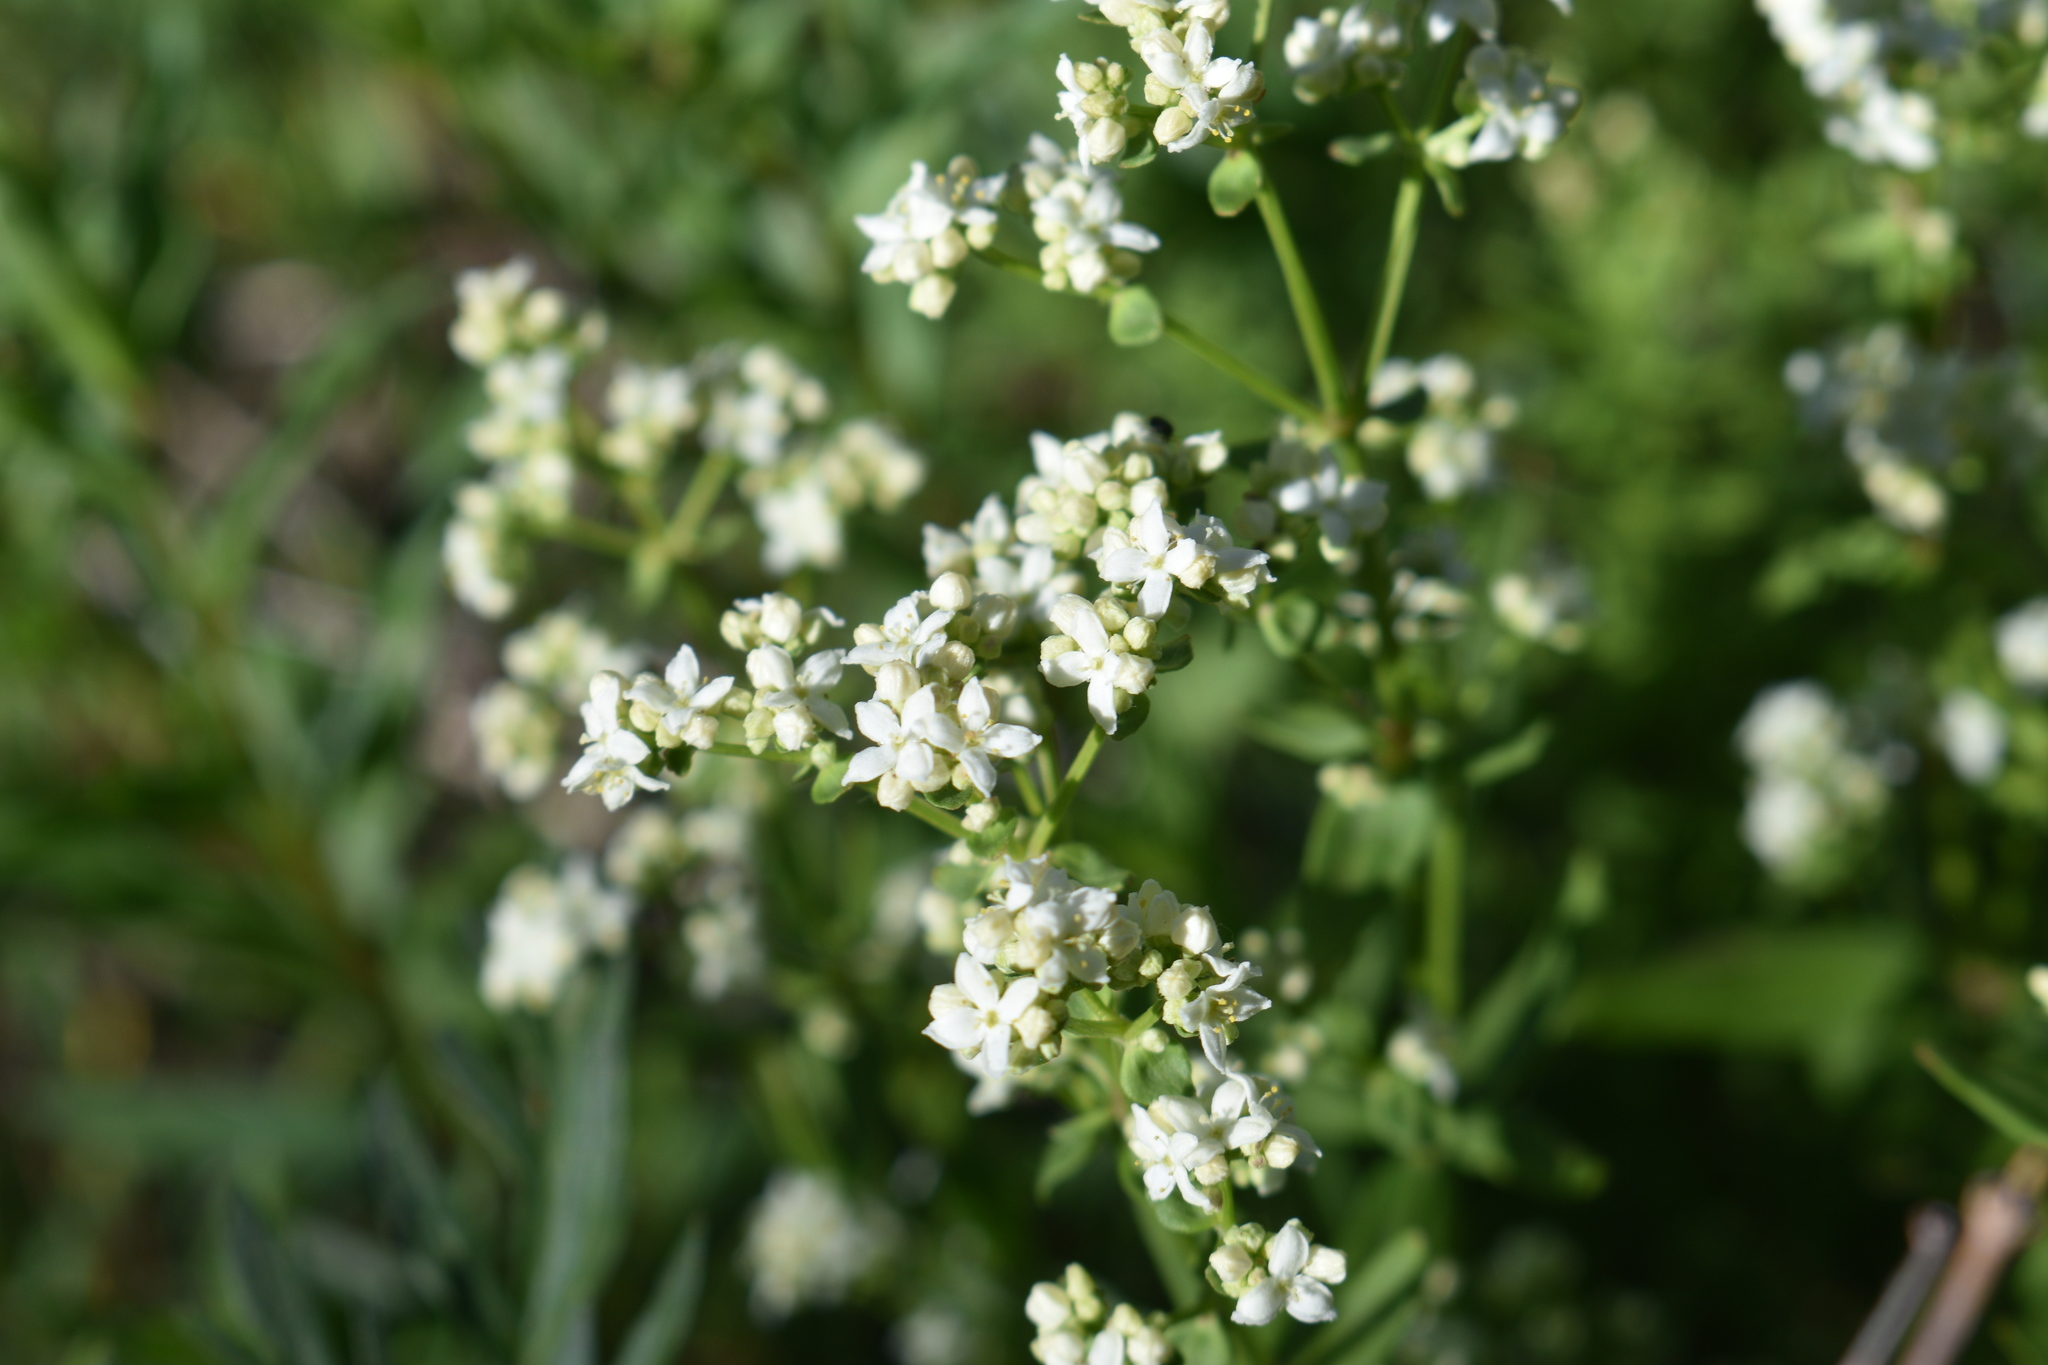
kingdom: Plantae
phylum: Tracheophyta
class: Magnoliopsida
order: Gentianales
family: Rubiaceae
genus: Galium
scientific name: Galium boreale
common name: Northern bedstraw
